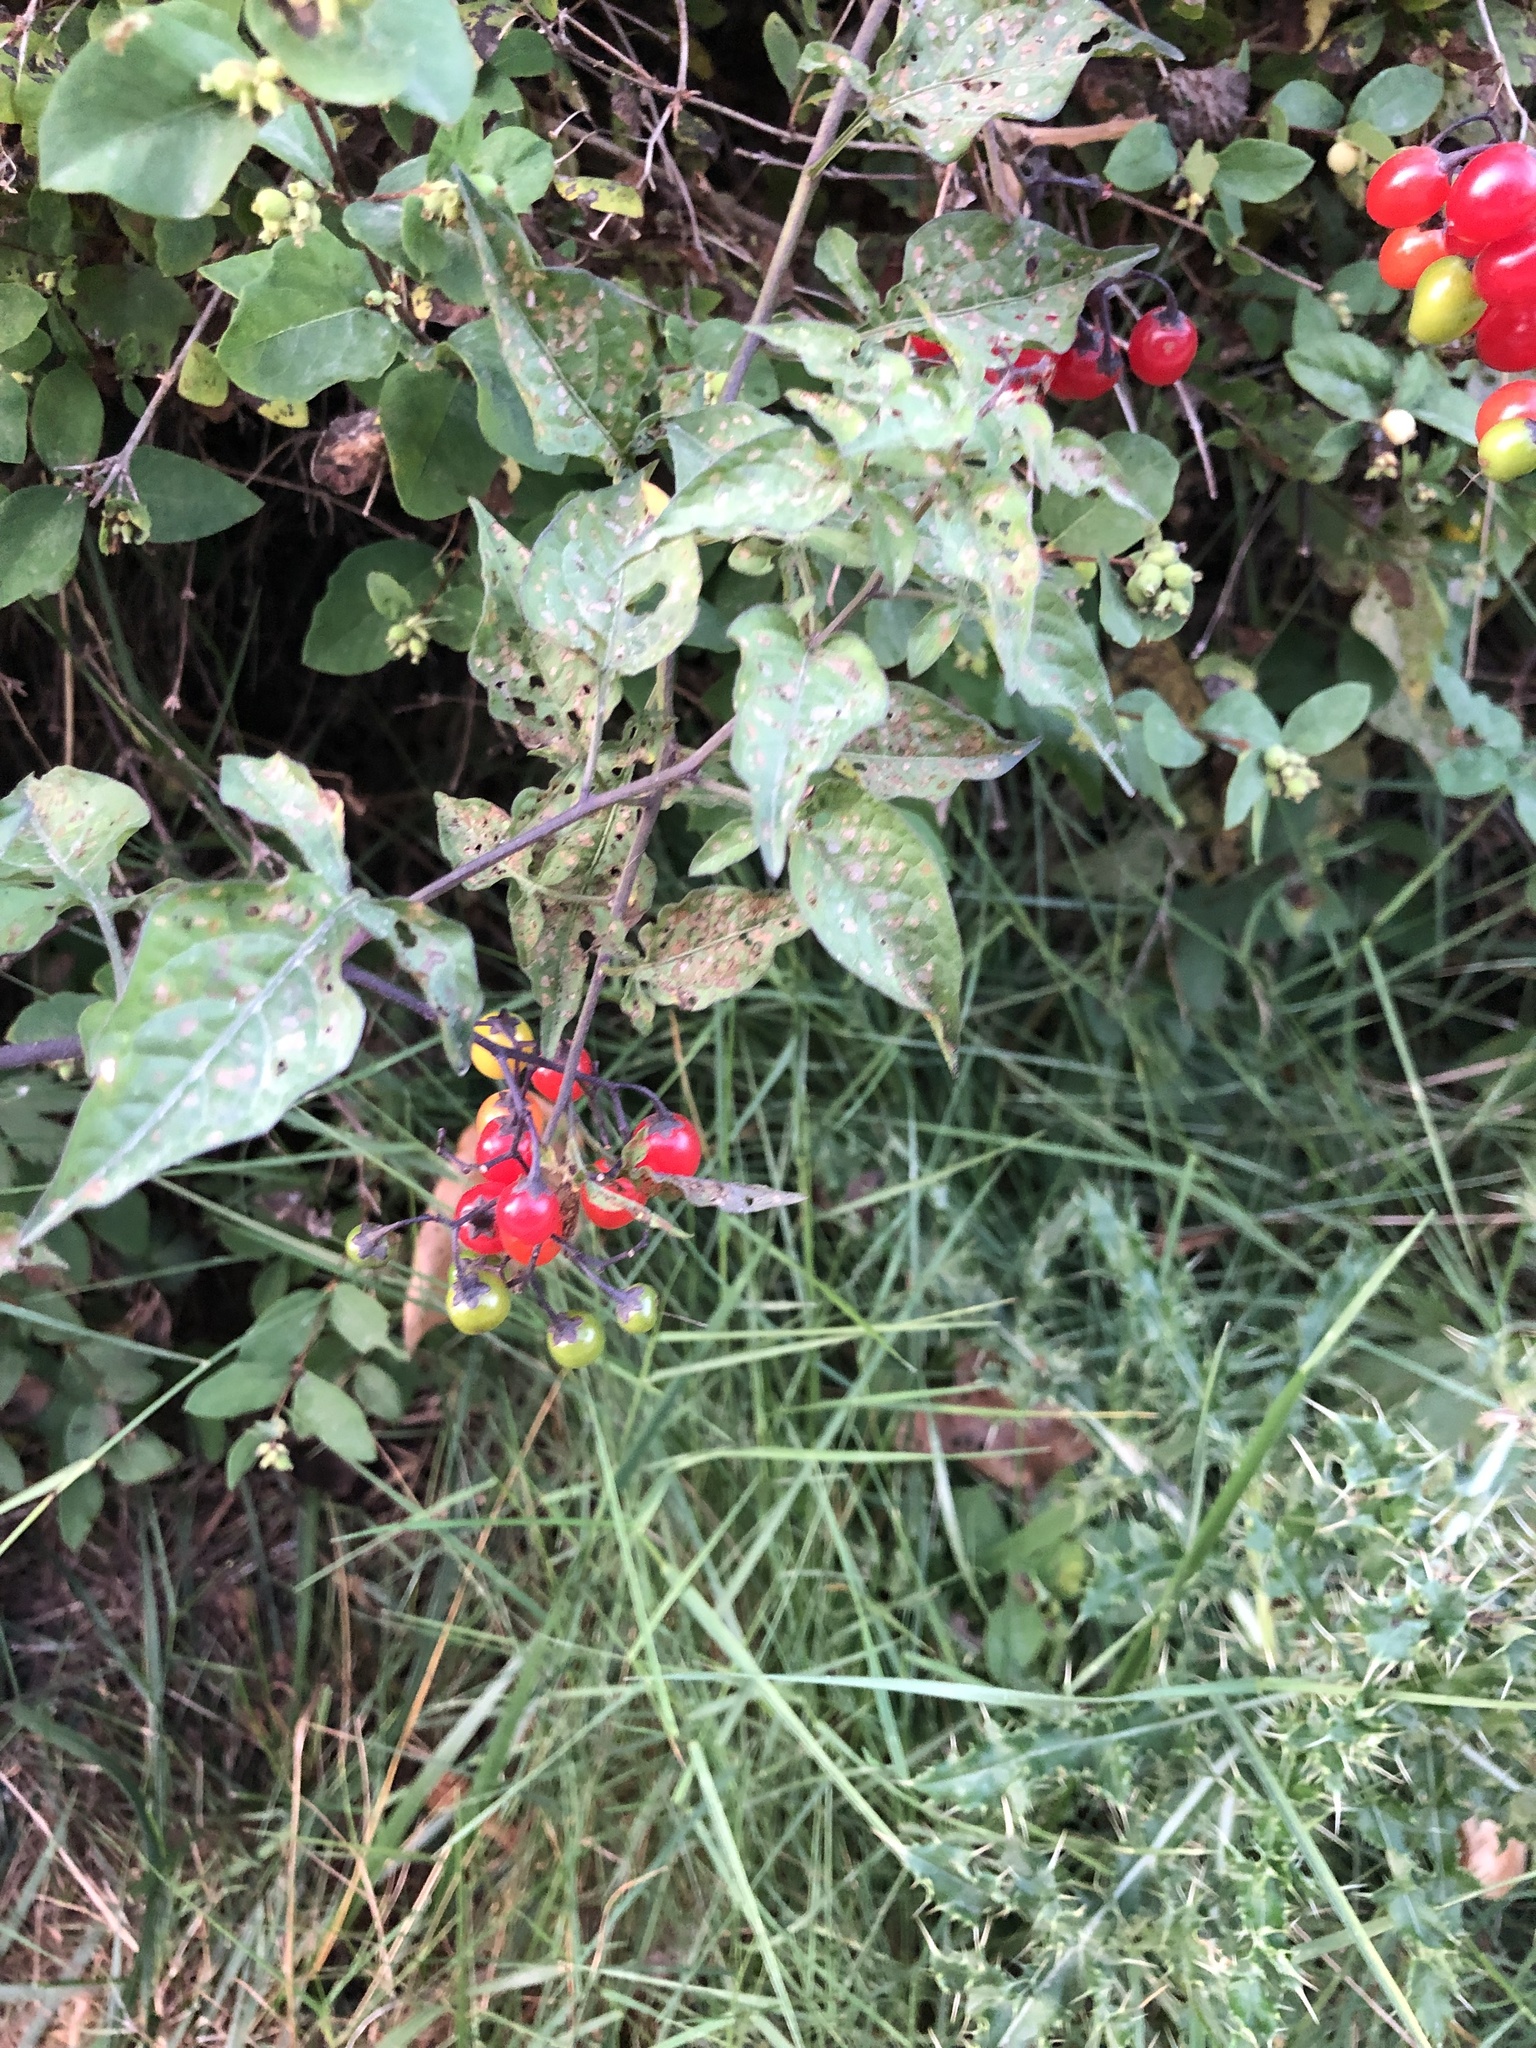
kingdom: Plantae
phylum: Tracheophyta
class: Magnoliopsida
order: Solanales
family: Solanaceae
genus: Solanum
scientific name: Solanum dulcamara
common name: Climbing nightshade
